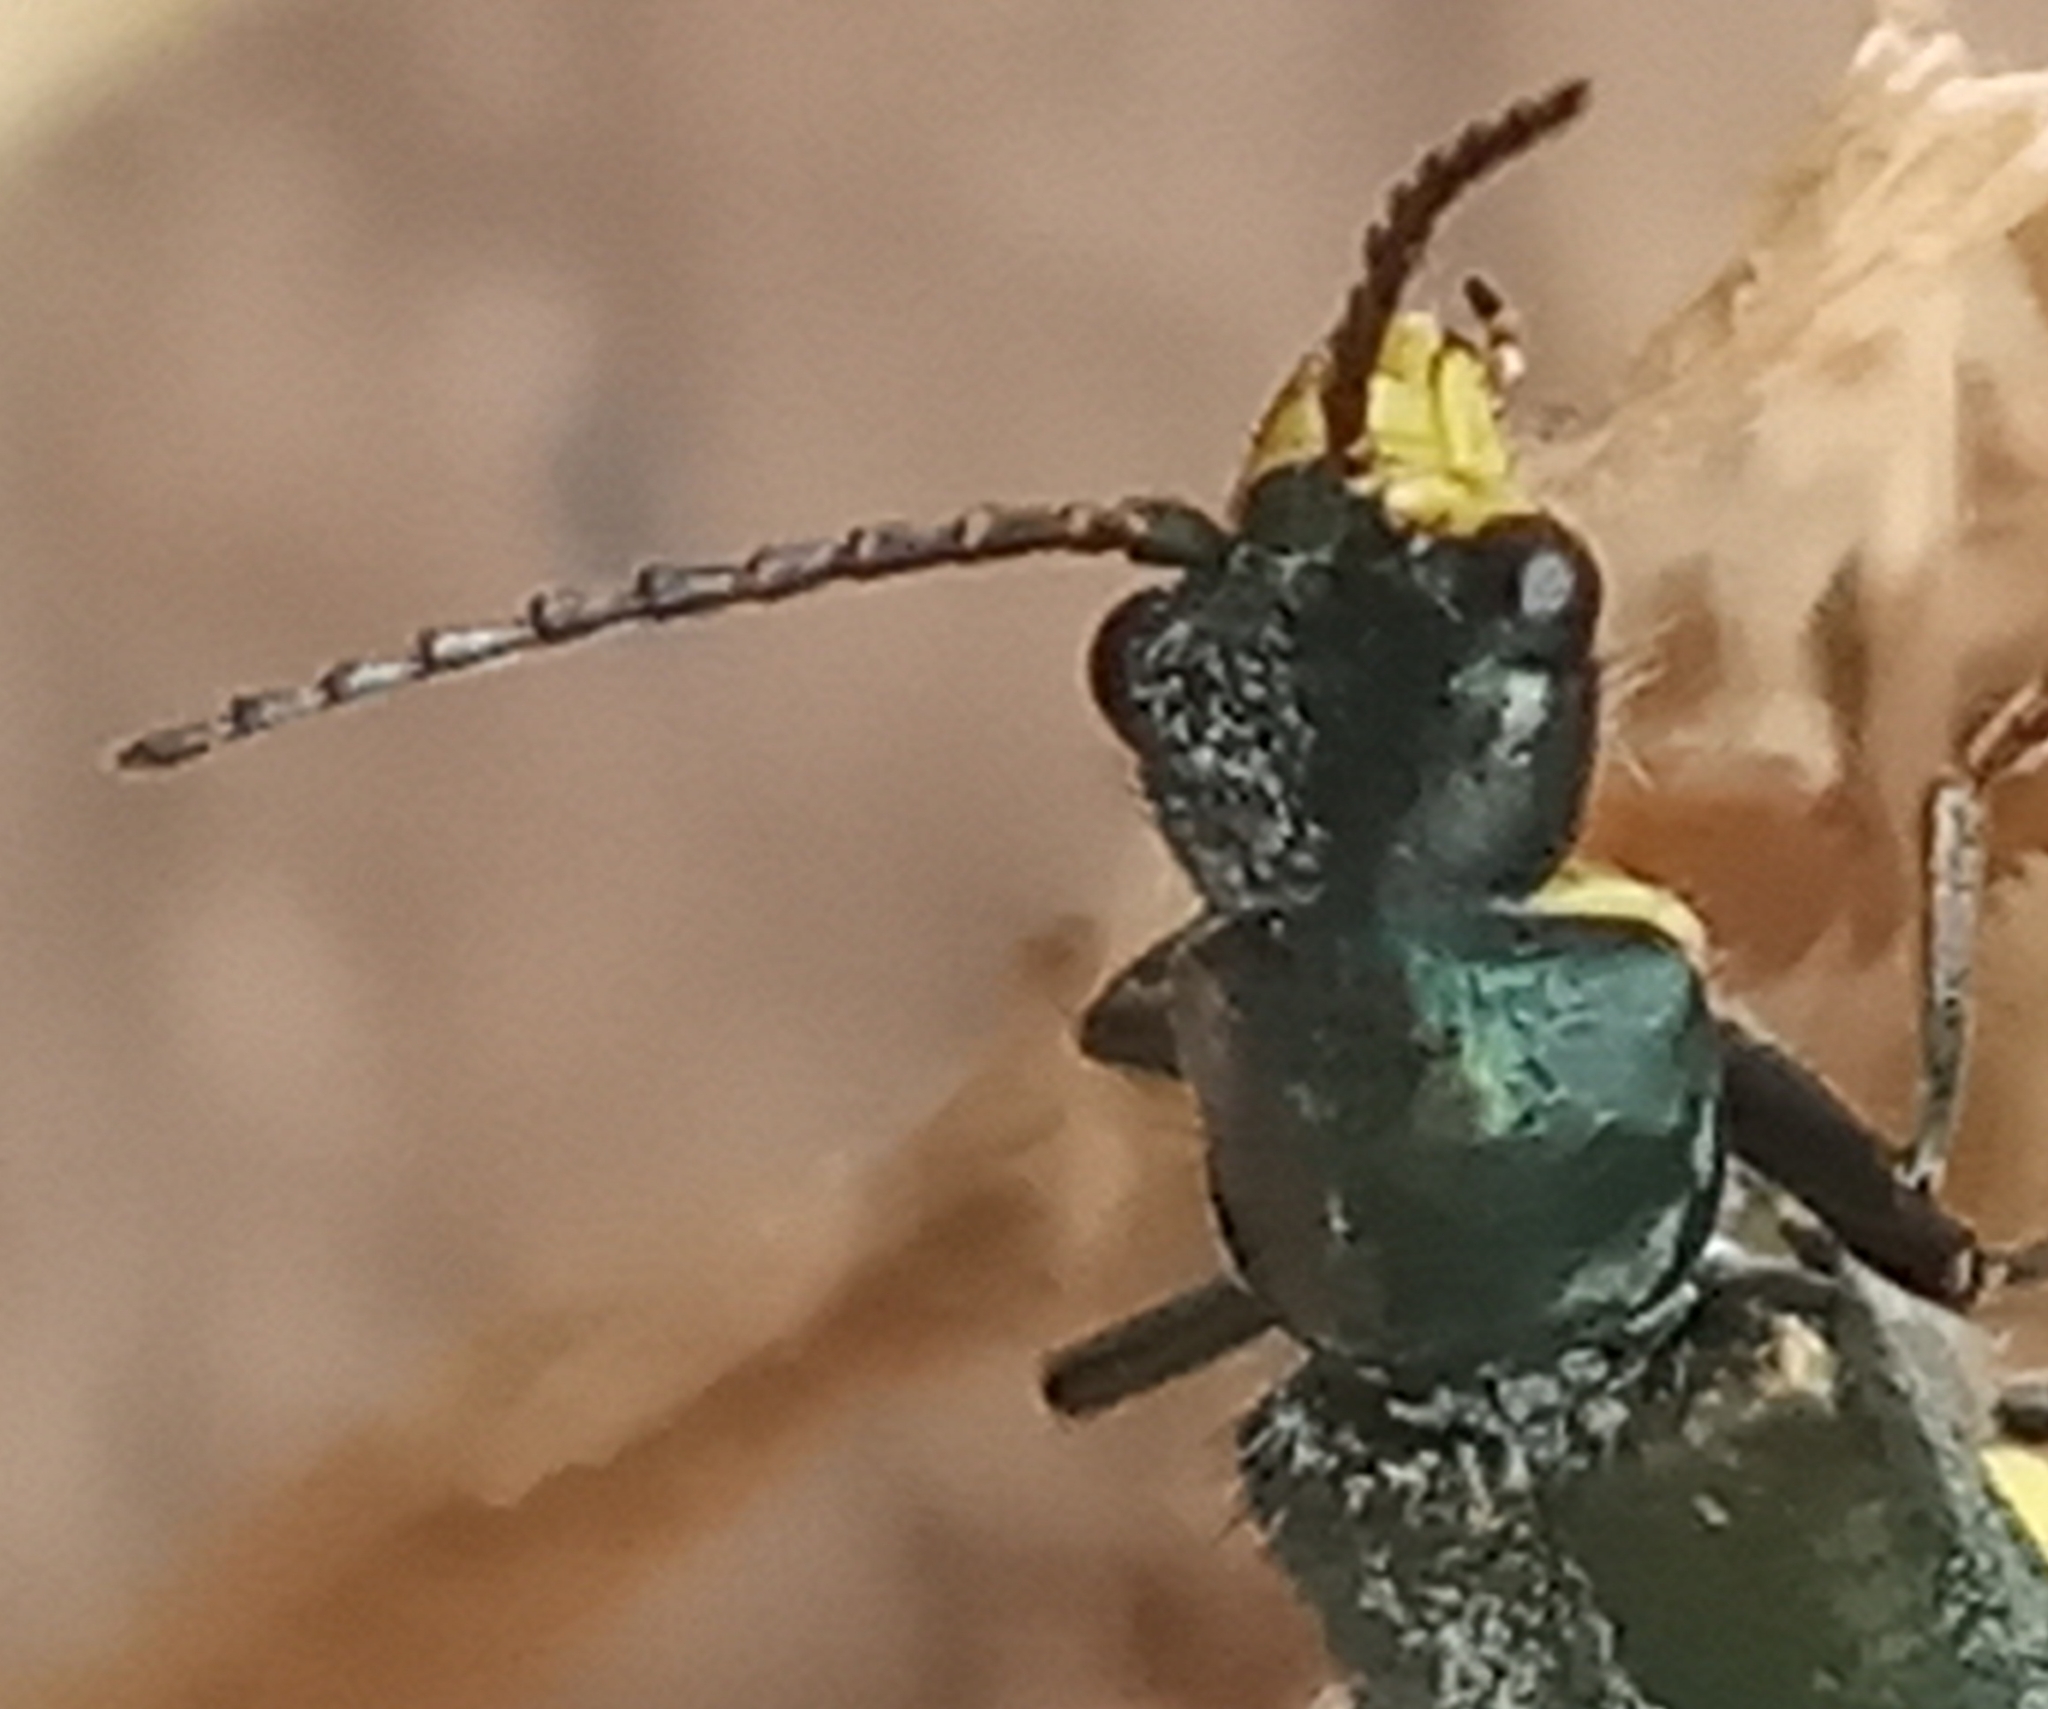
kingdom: Animalia
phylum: Arthropoda
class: Insecta
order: Coleoptera
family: Malachiidae
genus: Clanoptilus
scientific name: Clanoptilus marginellus
